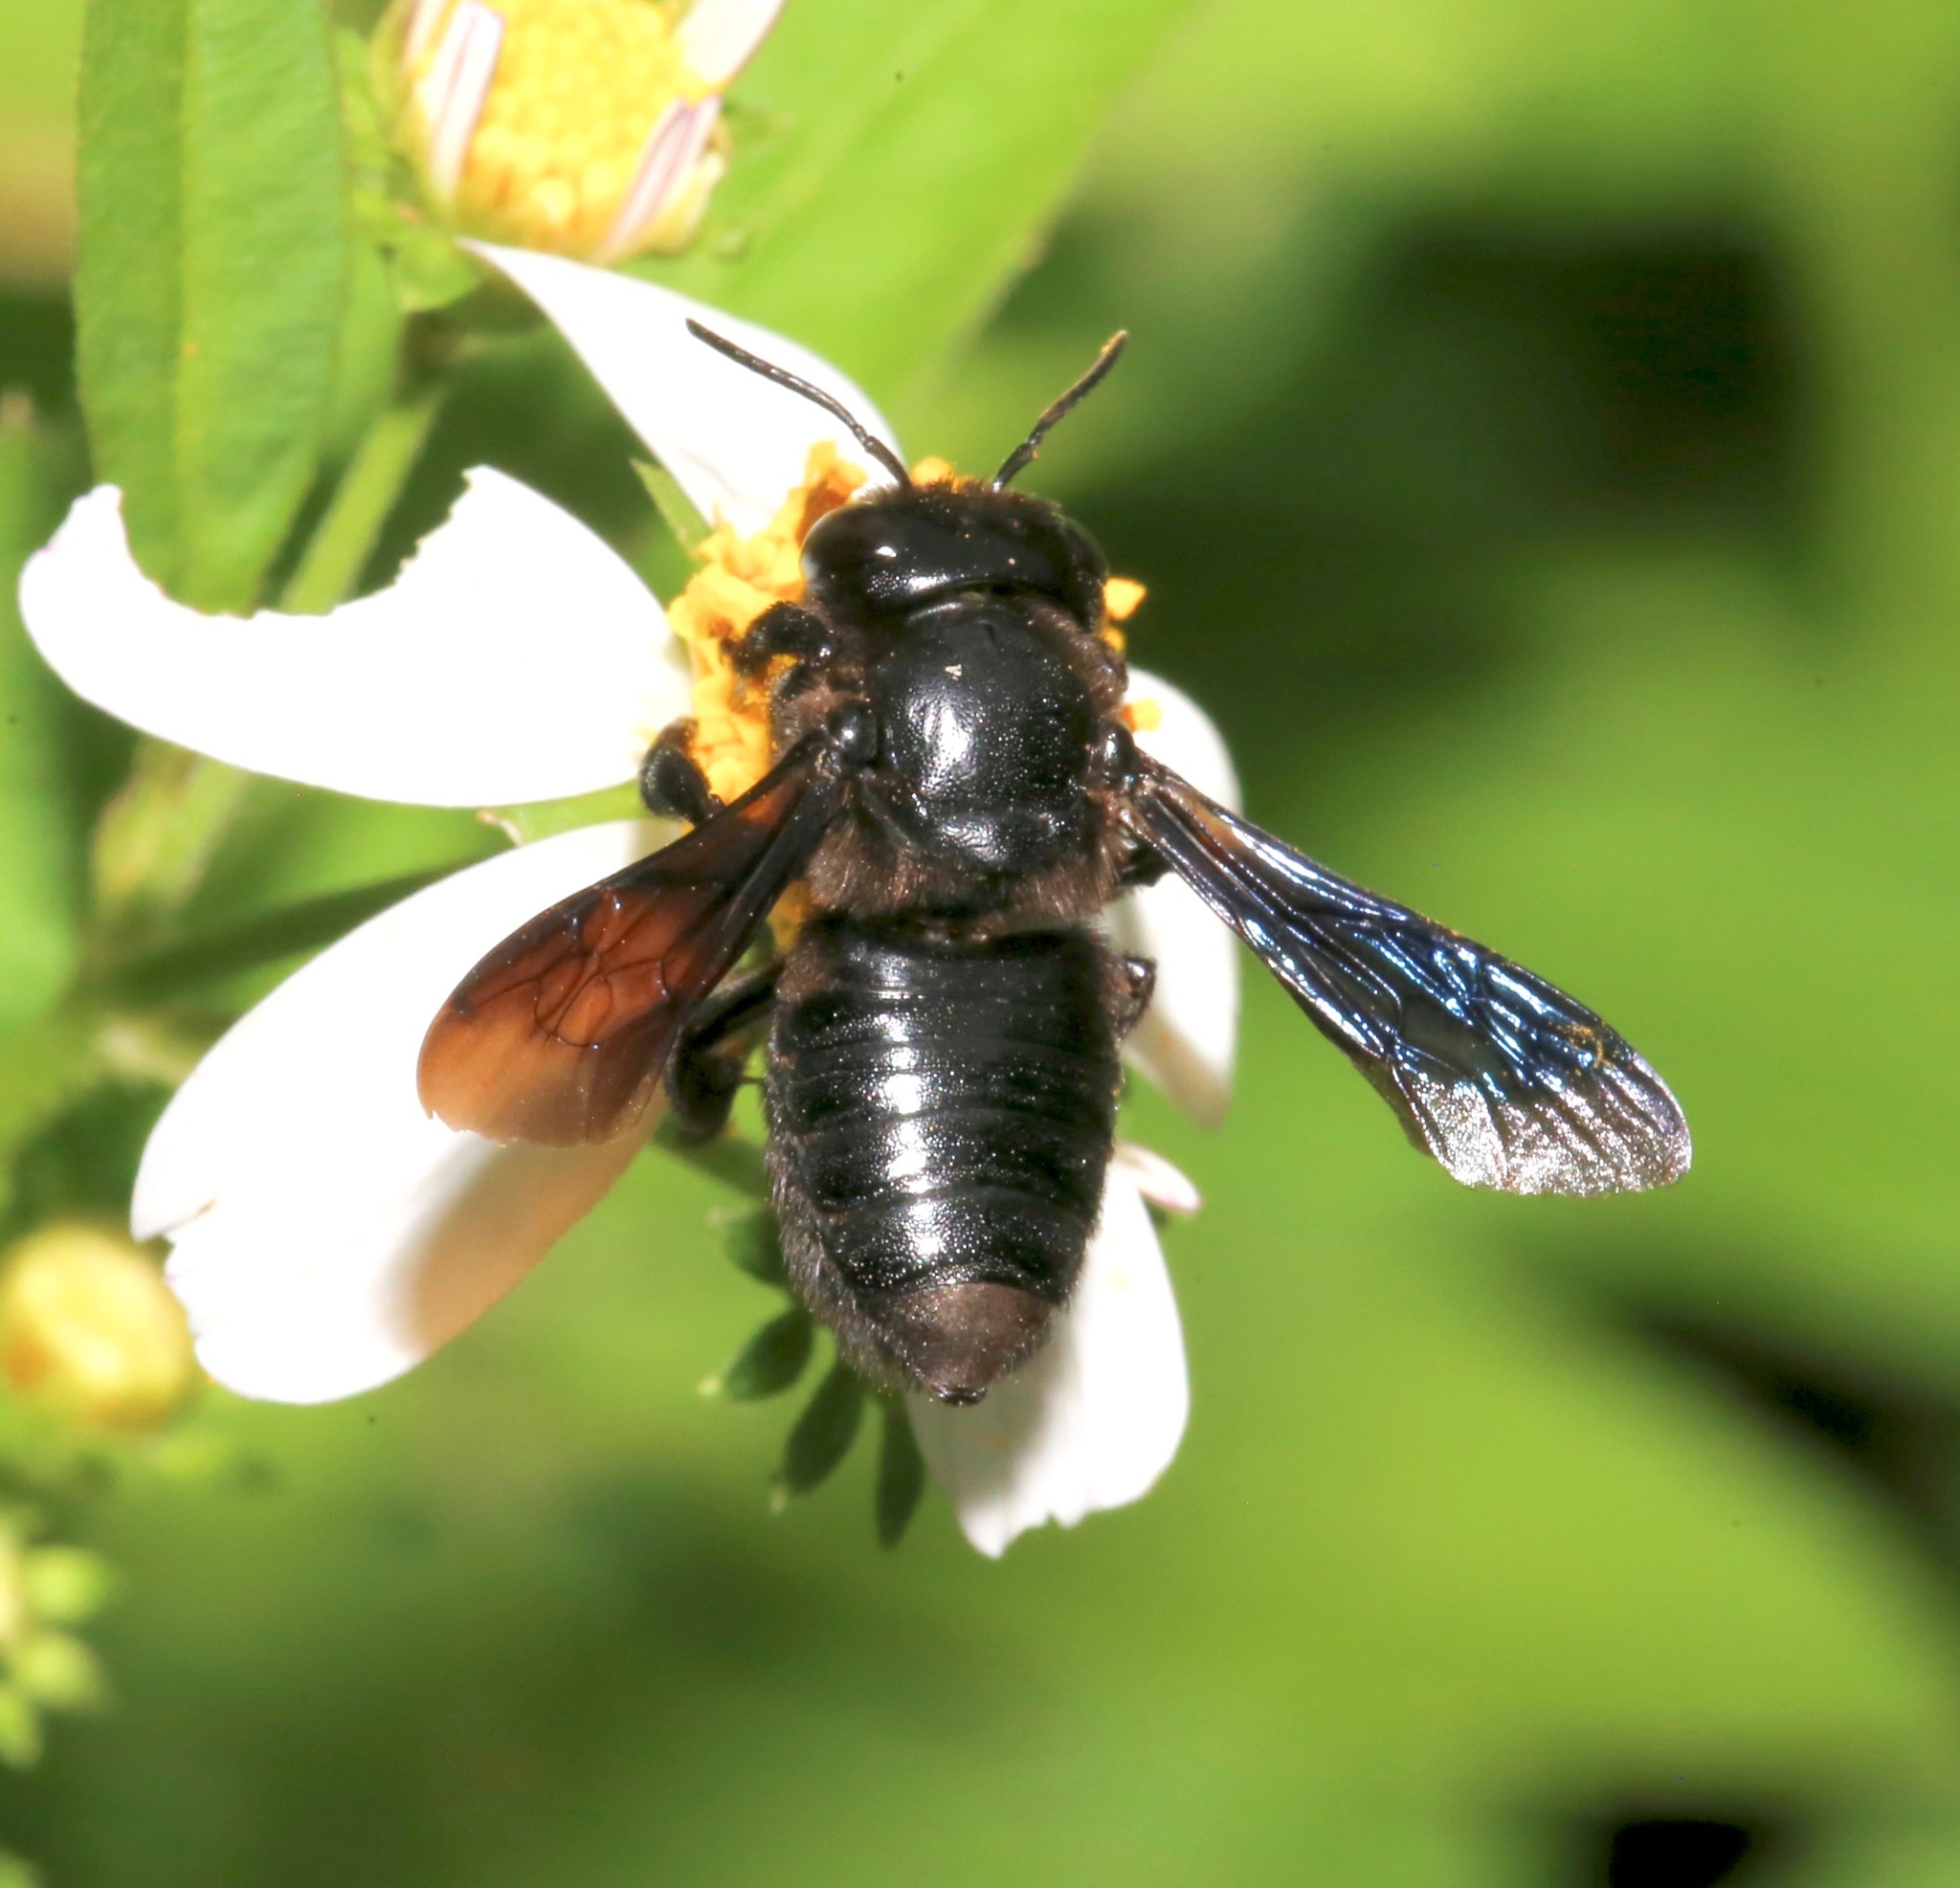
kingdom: Animalia
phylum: Arthropoda
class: Insecta
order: Hymenoptera
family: Megachilidae
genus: Megachile
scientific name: Megachile xylocopoides
